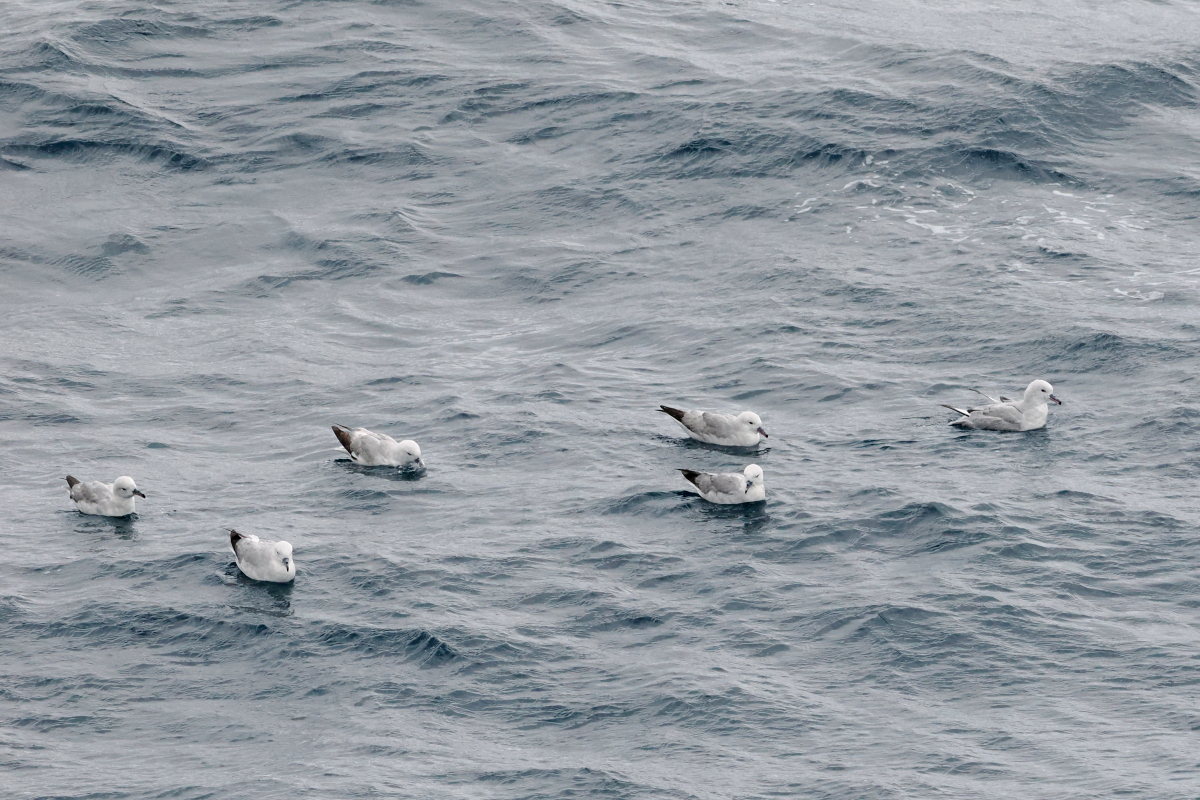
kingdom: Animalia
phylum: Chordata
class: Aves
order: Procellariiformes
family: Procellariidae
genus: Fulmarus
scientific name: Fulmarus glacialoides
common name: Southern fulmar
